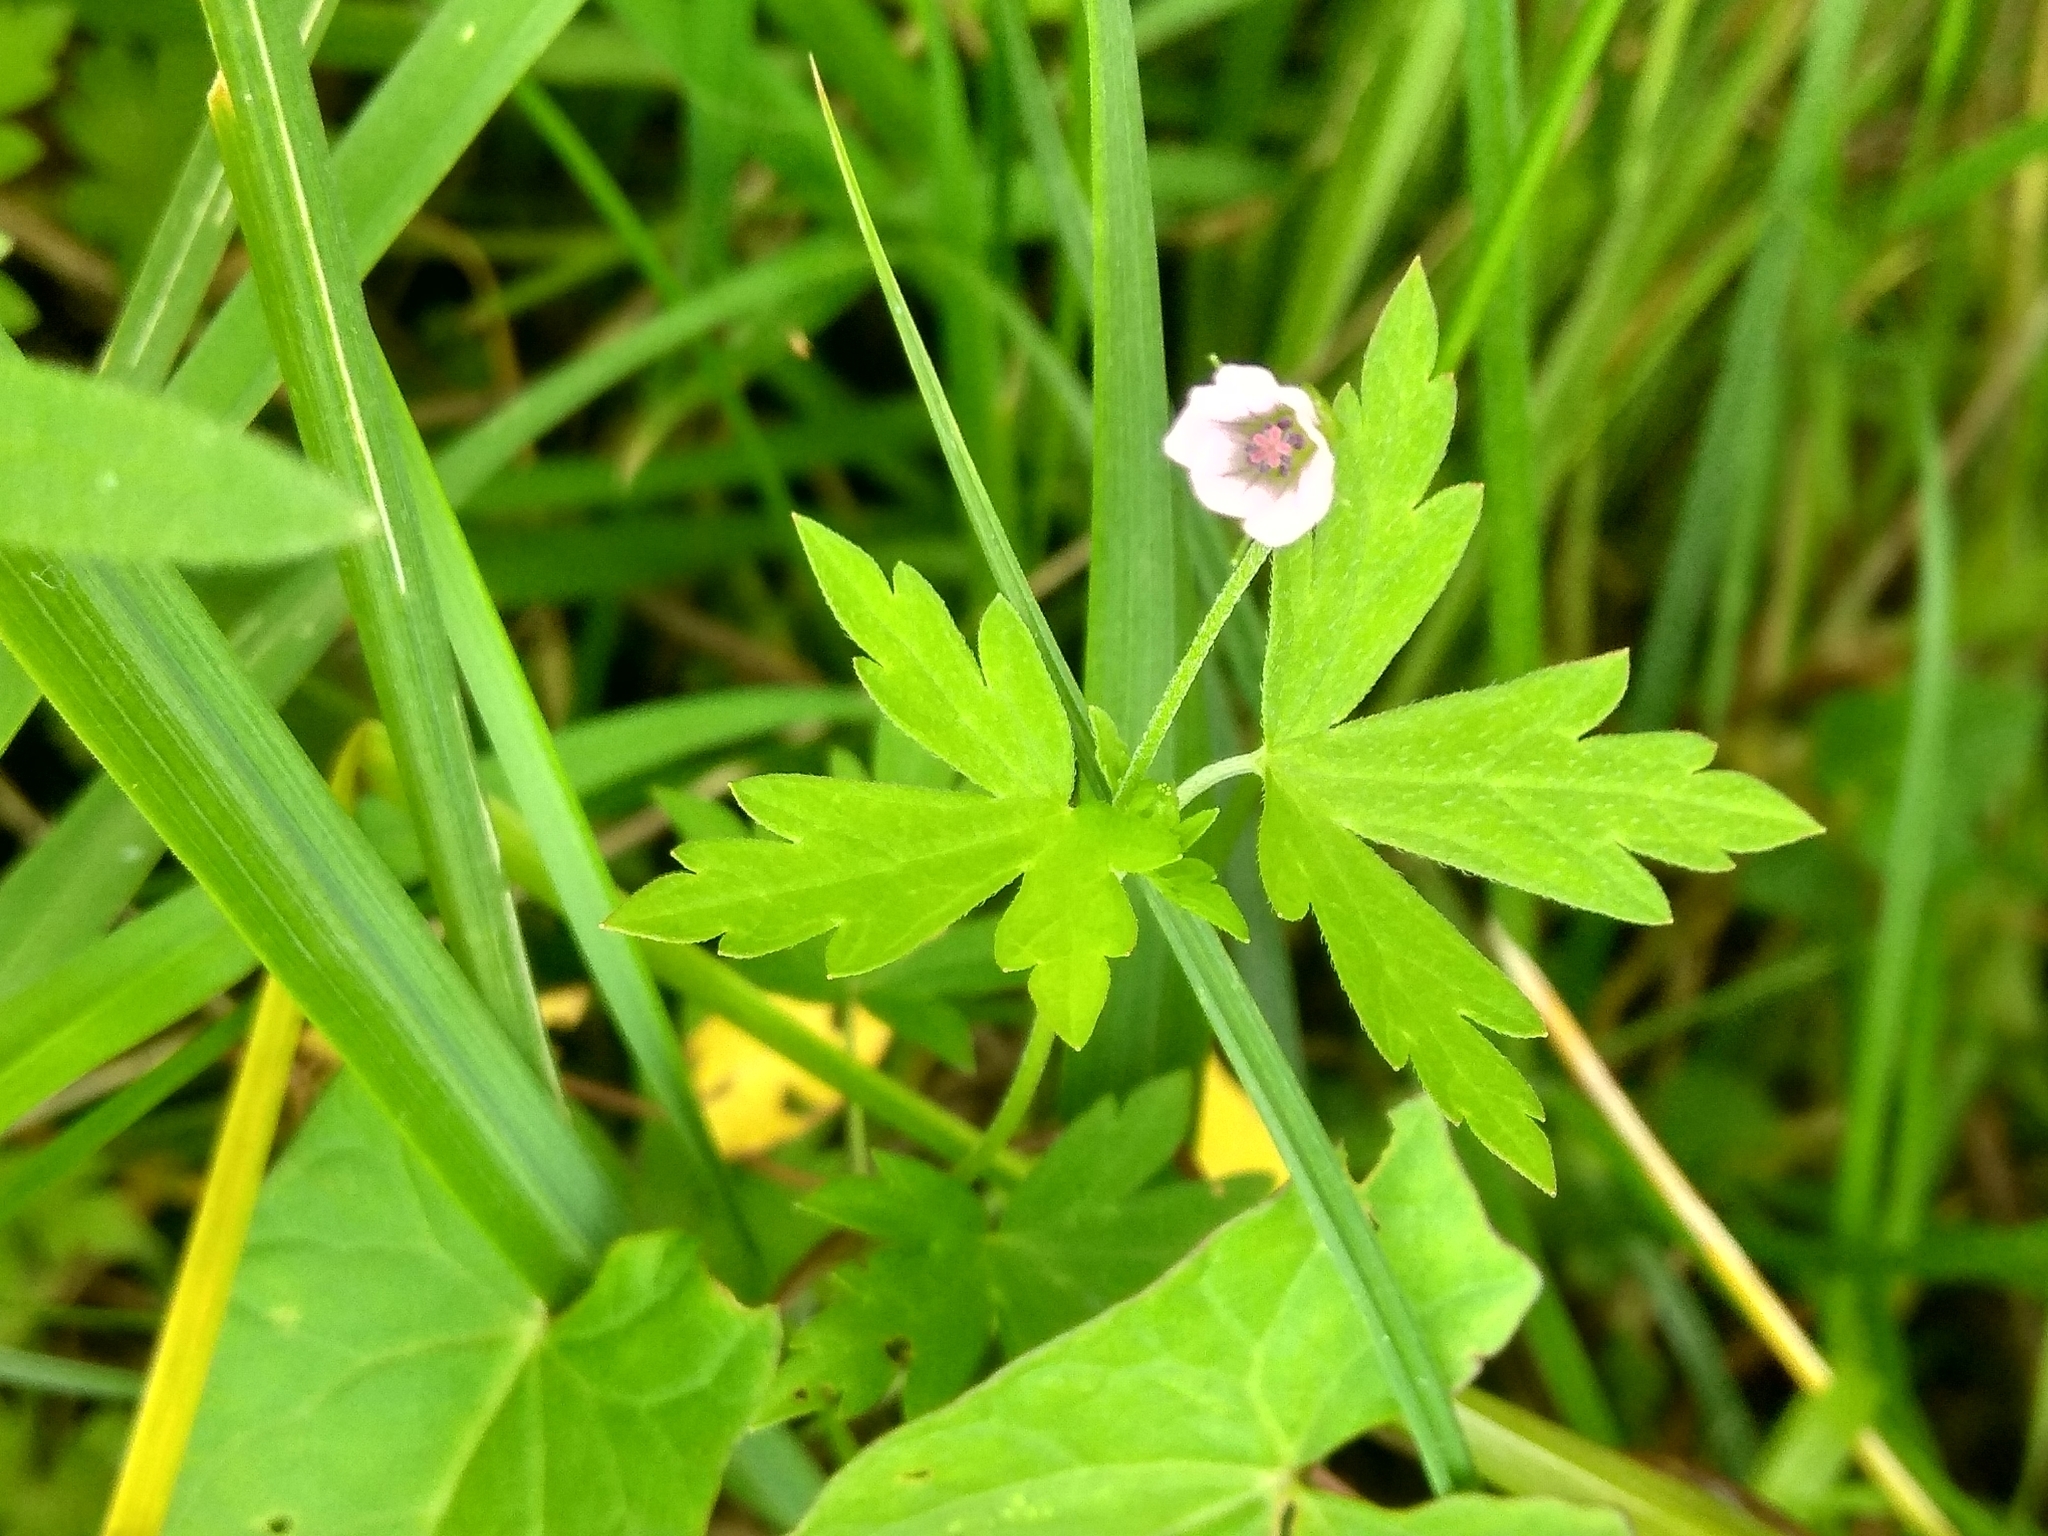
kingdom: Plantae
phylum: Tracheophyta
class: Magnoliopsida
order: Geraniales
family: Geraniaceae
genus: Geranium
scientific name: Geranium sibiricum
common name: Siberian crane's-bill
